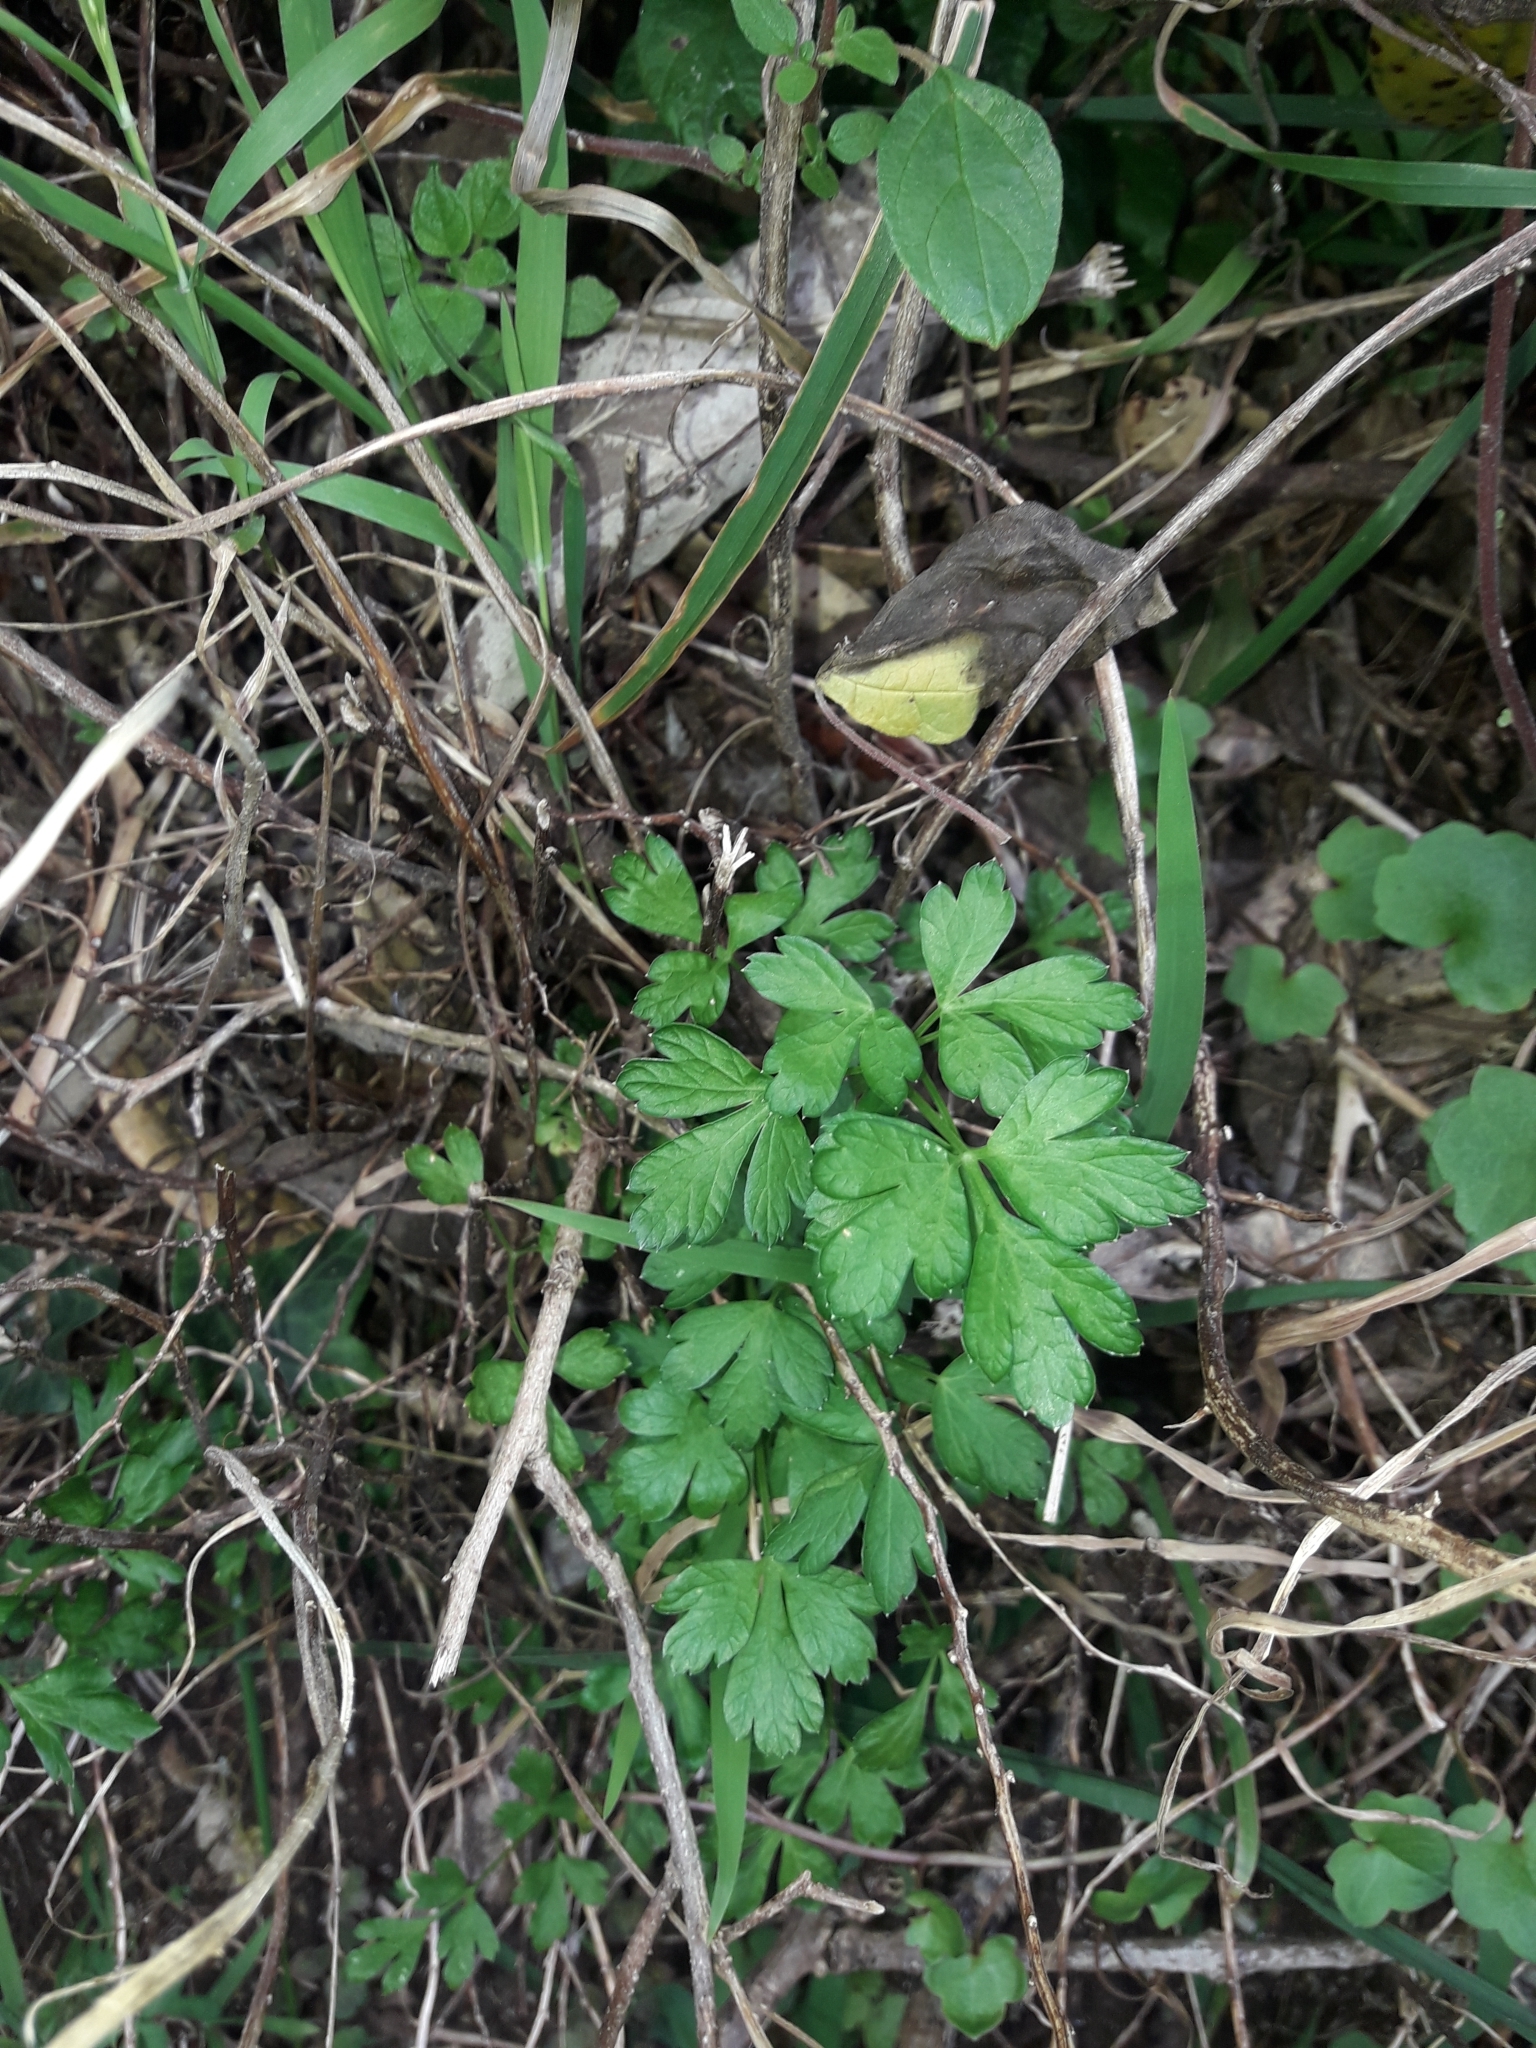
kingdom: Plantae
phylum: Tracheophyta
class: Magnoliopsida
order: Apiales
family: Apiaceae
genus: Petroselinum
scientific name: Petroselinum crispum
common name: Parsley
